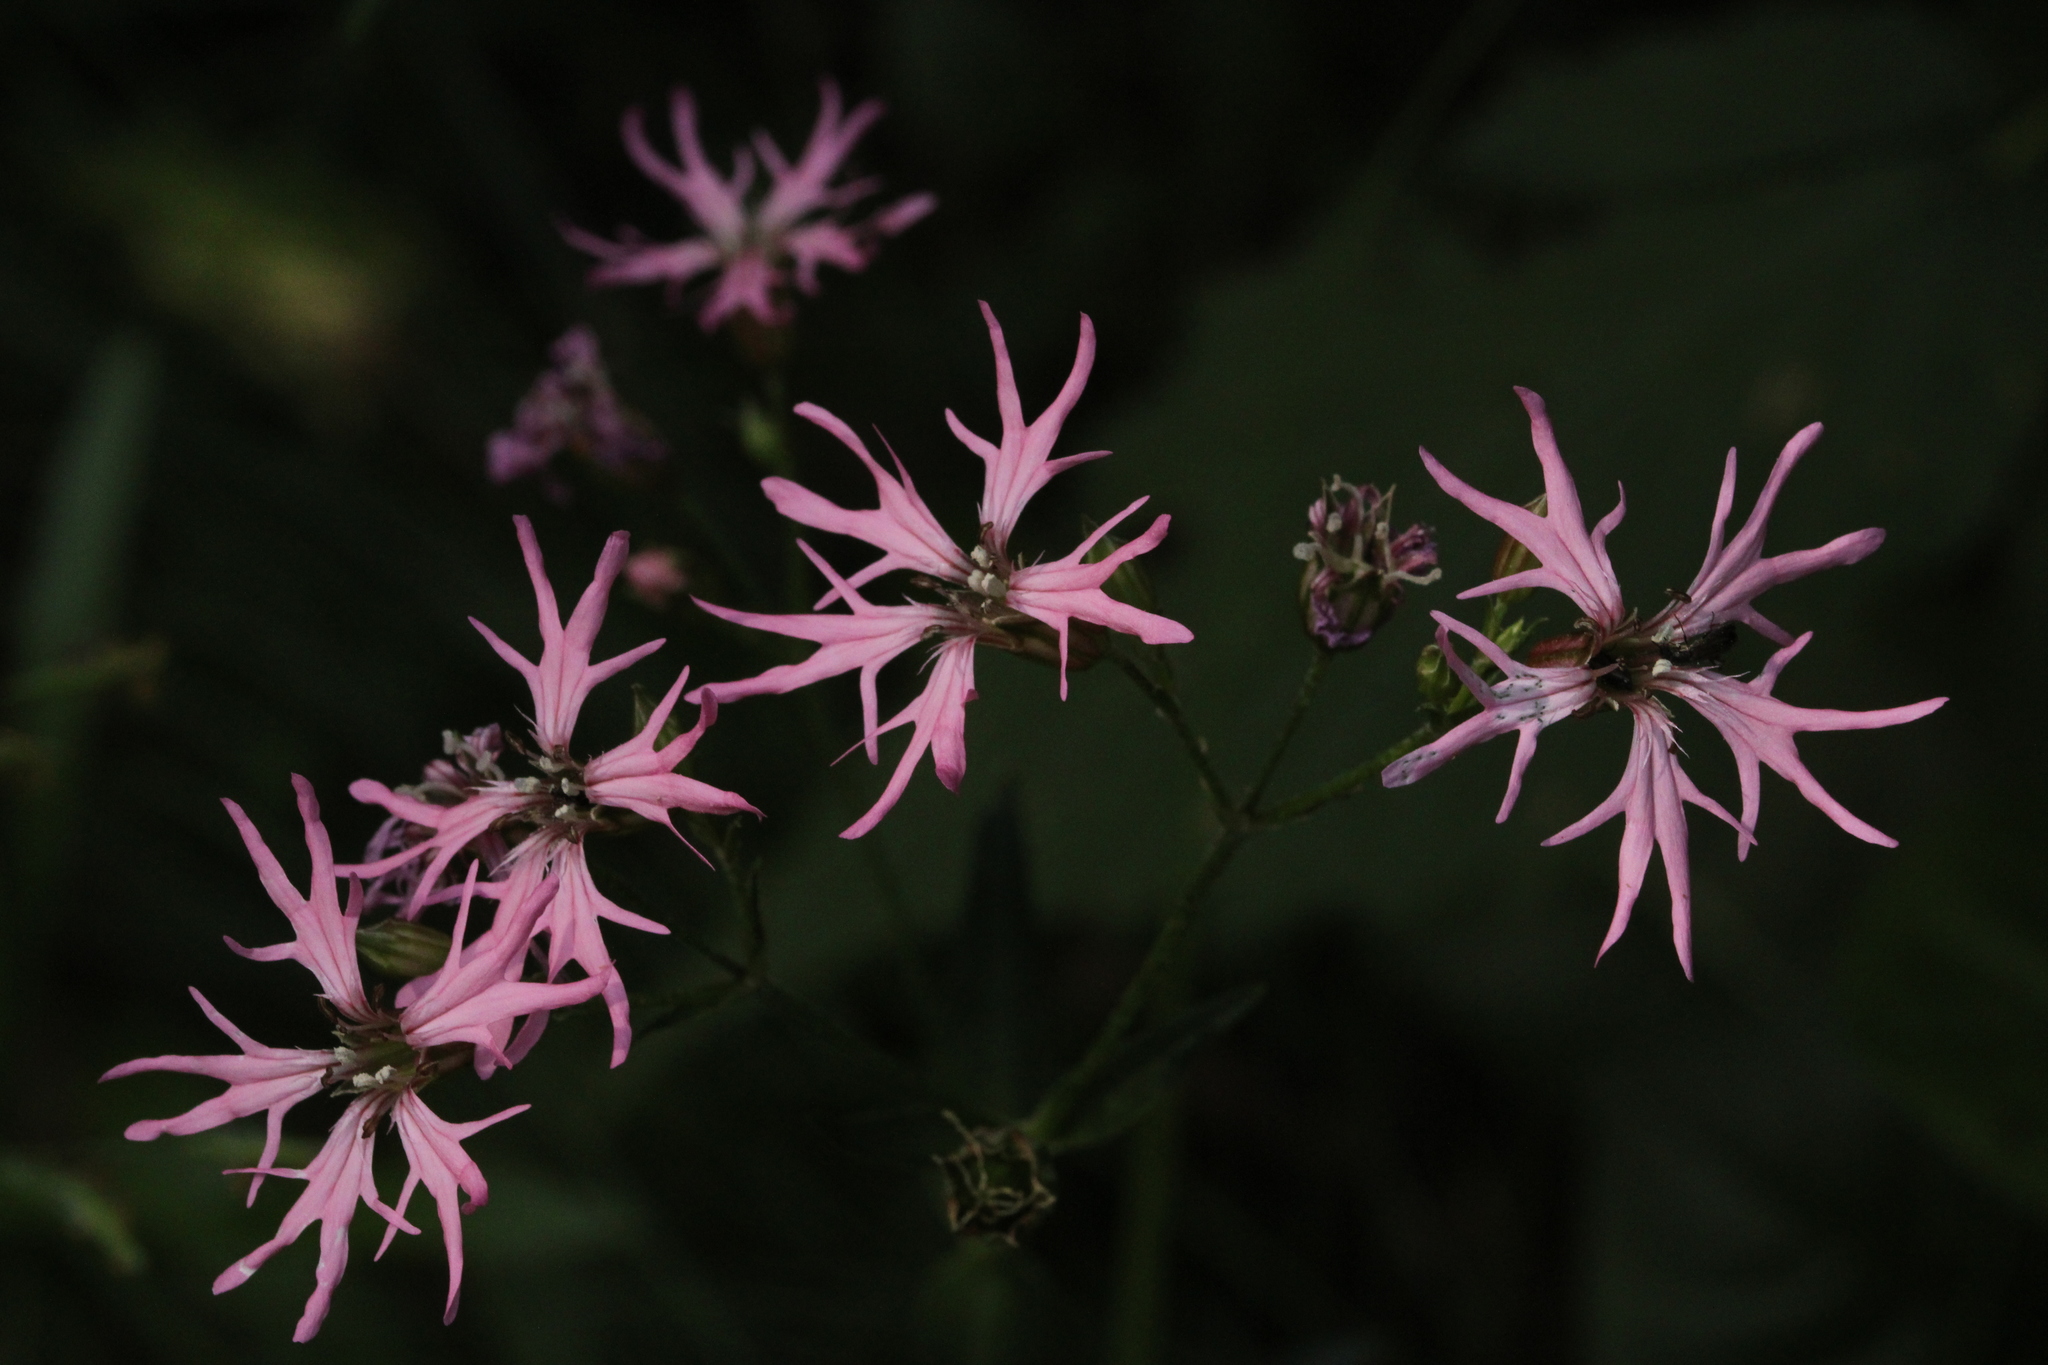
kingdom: Plantae
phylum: Tracheophyta
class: Magnoliopsida
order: Caryophyllales
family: Caryophyllaceae
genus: Silene
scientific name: Silene flos-cuculi
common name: Ragged-robin
